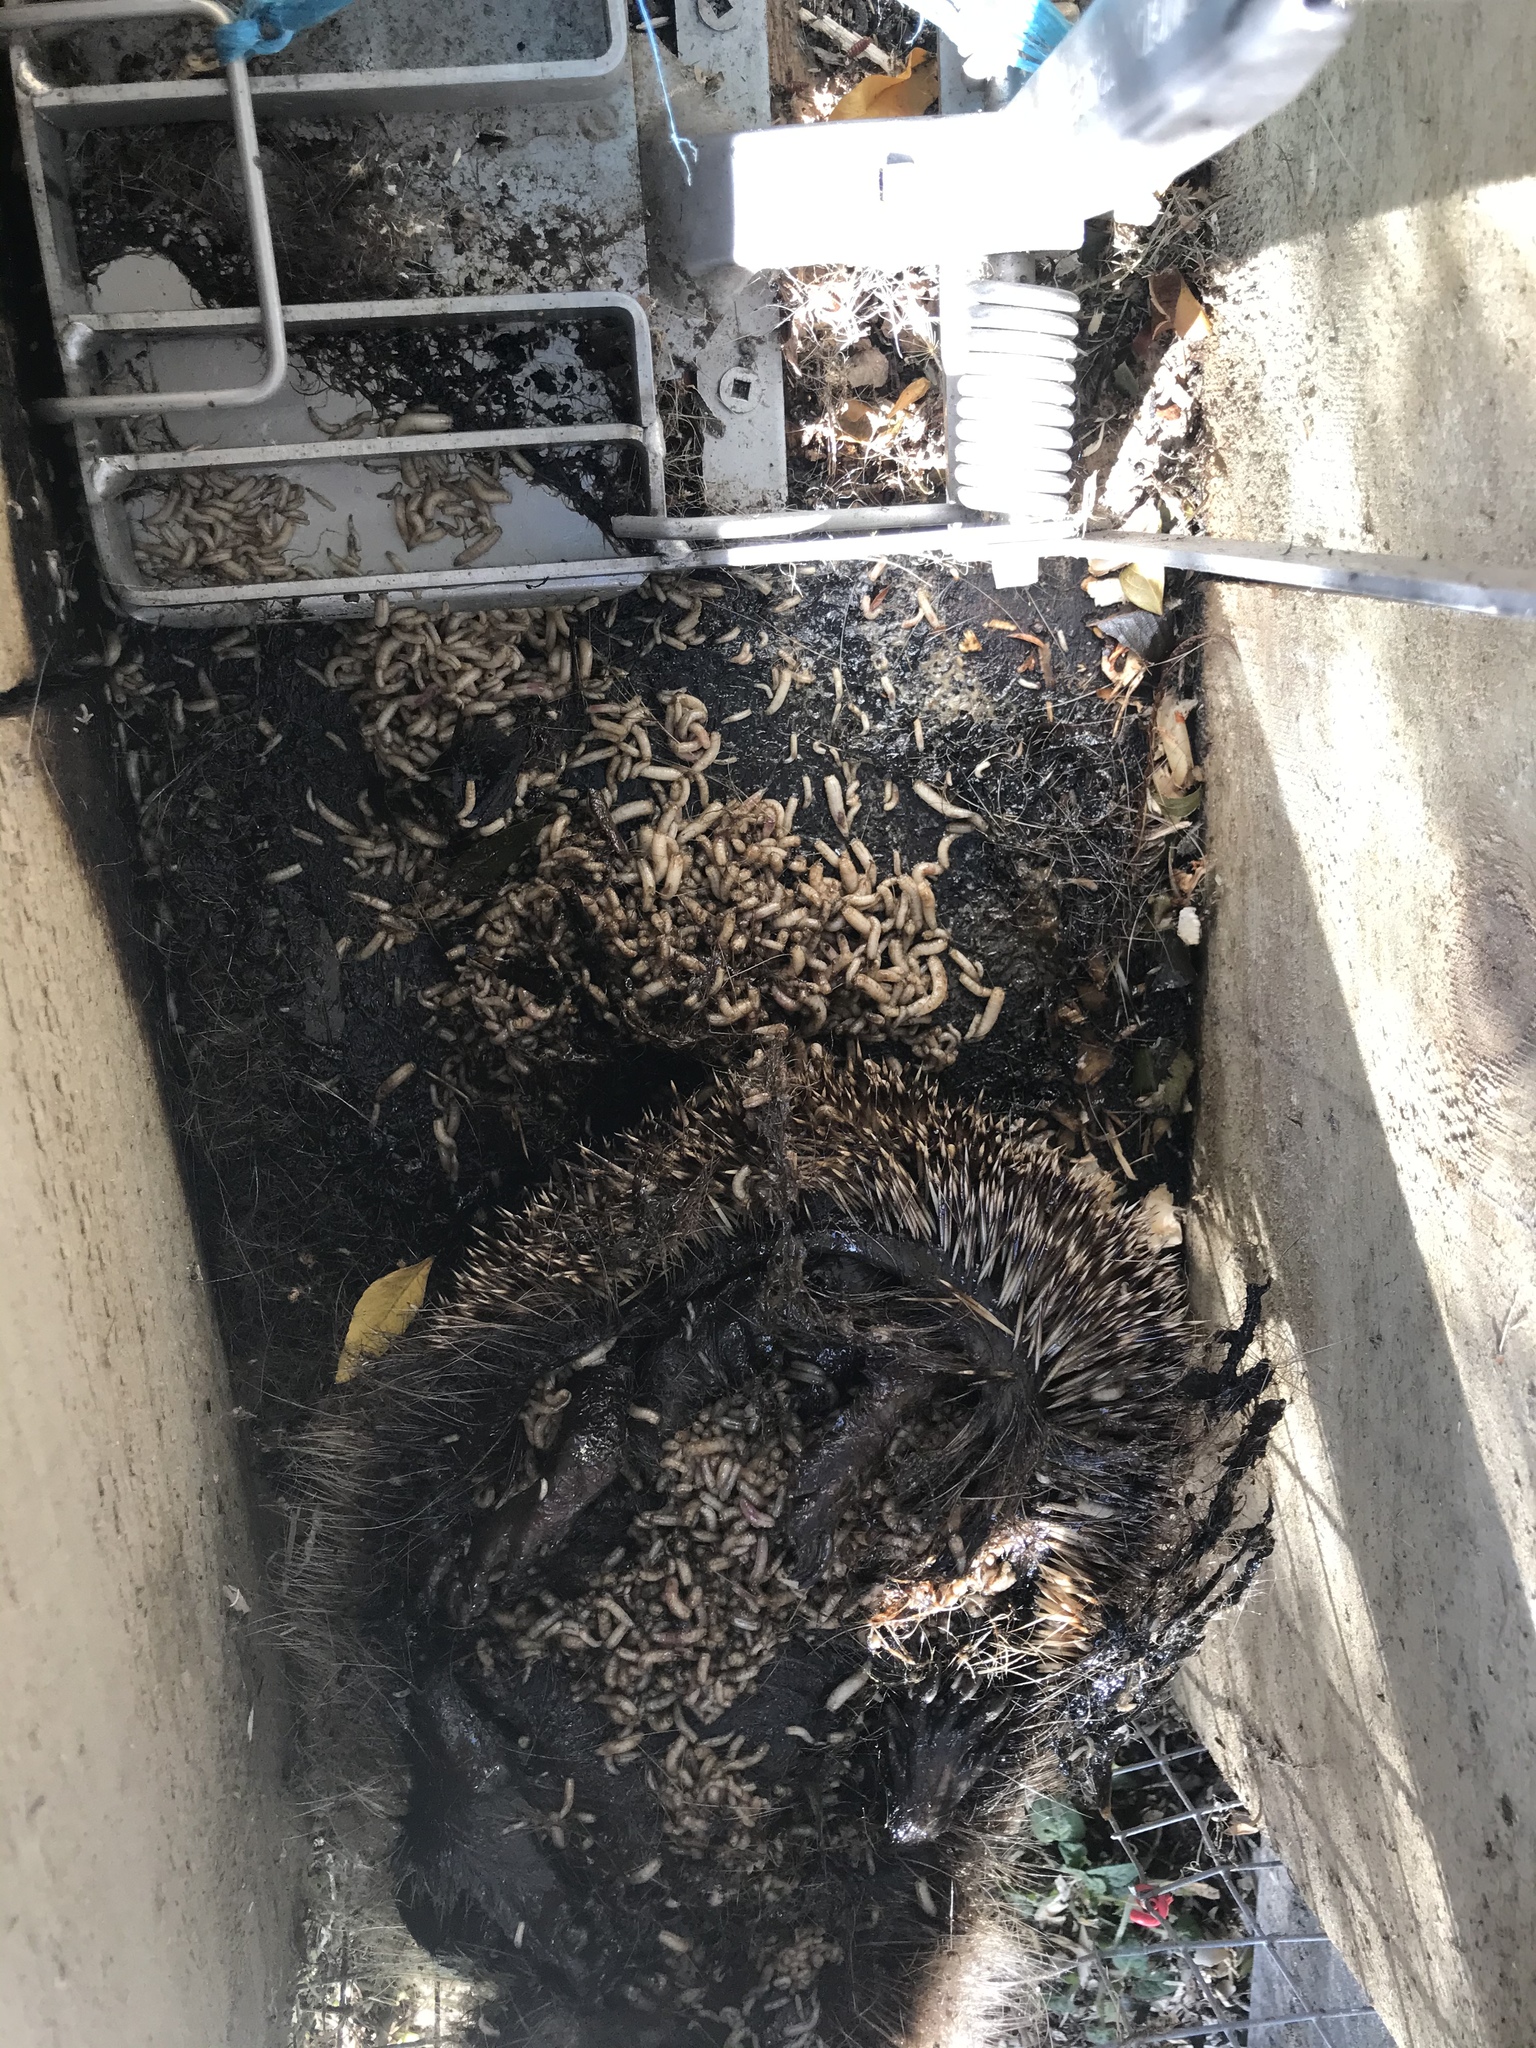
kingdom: Animalia
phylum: Chordata
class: Mammalia
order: Erinaceomorpha
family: Erinaceidae
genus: Erinaceus
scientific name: Erinaceus europaeus
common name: West european hedgehog
